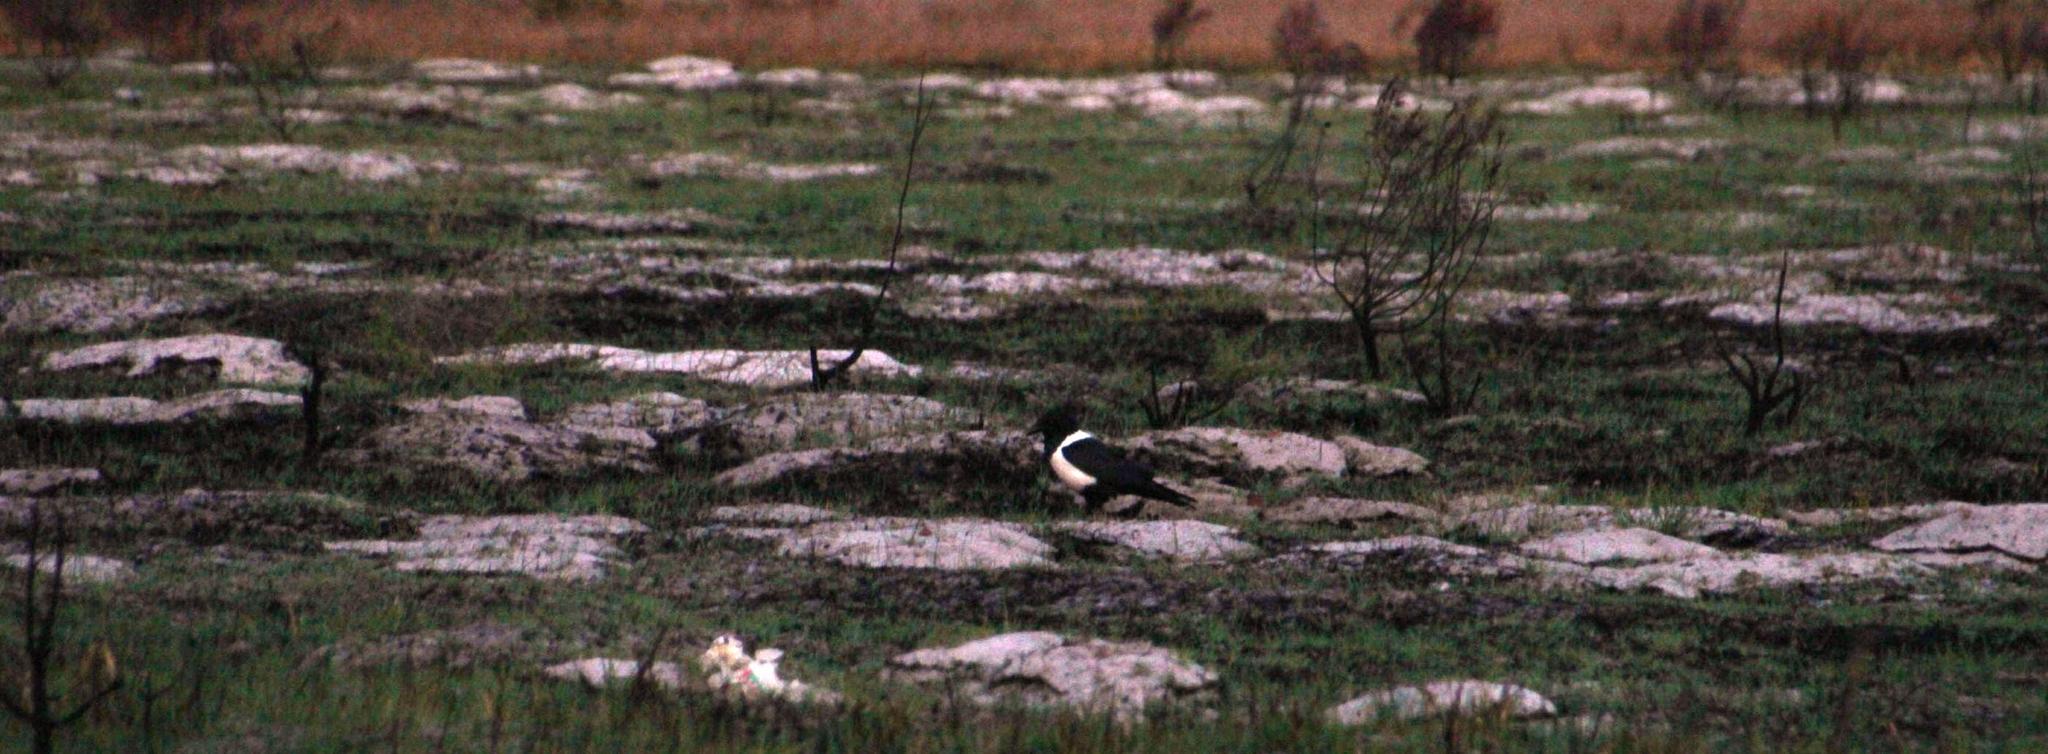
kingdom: Animalia
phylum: Chordata
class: Mammalia
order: Rodentia
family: Bathyergidae
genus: Bathyergus
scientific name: Bathyergus suillus
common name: Cape dune mole rat
